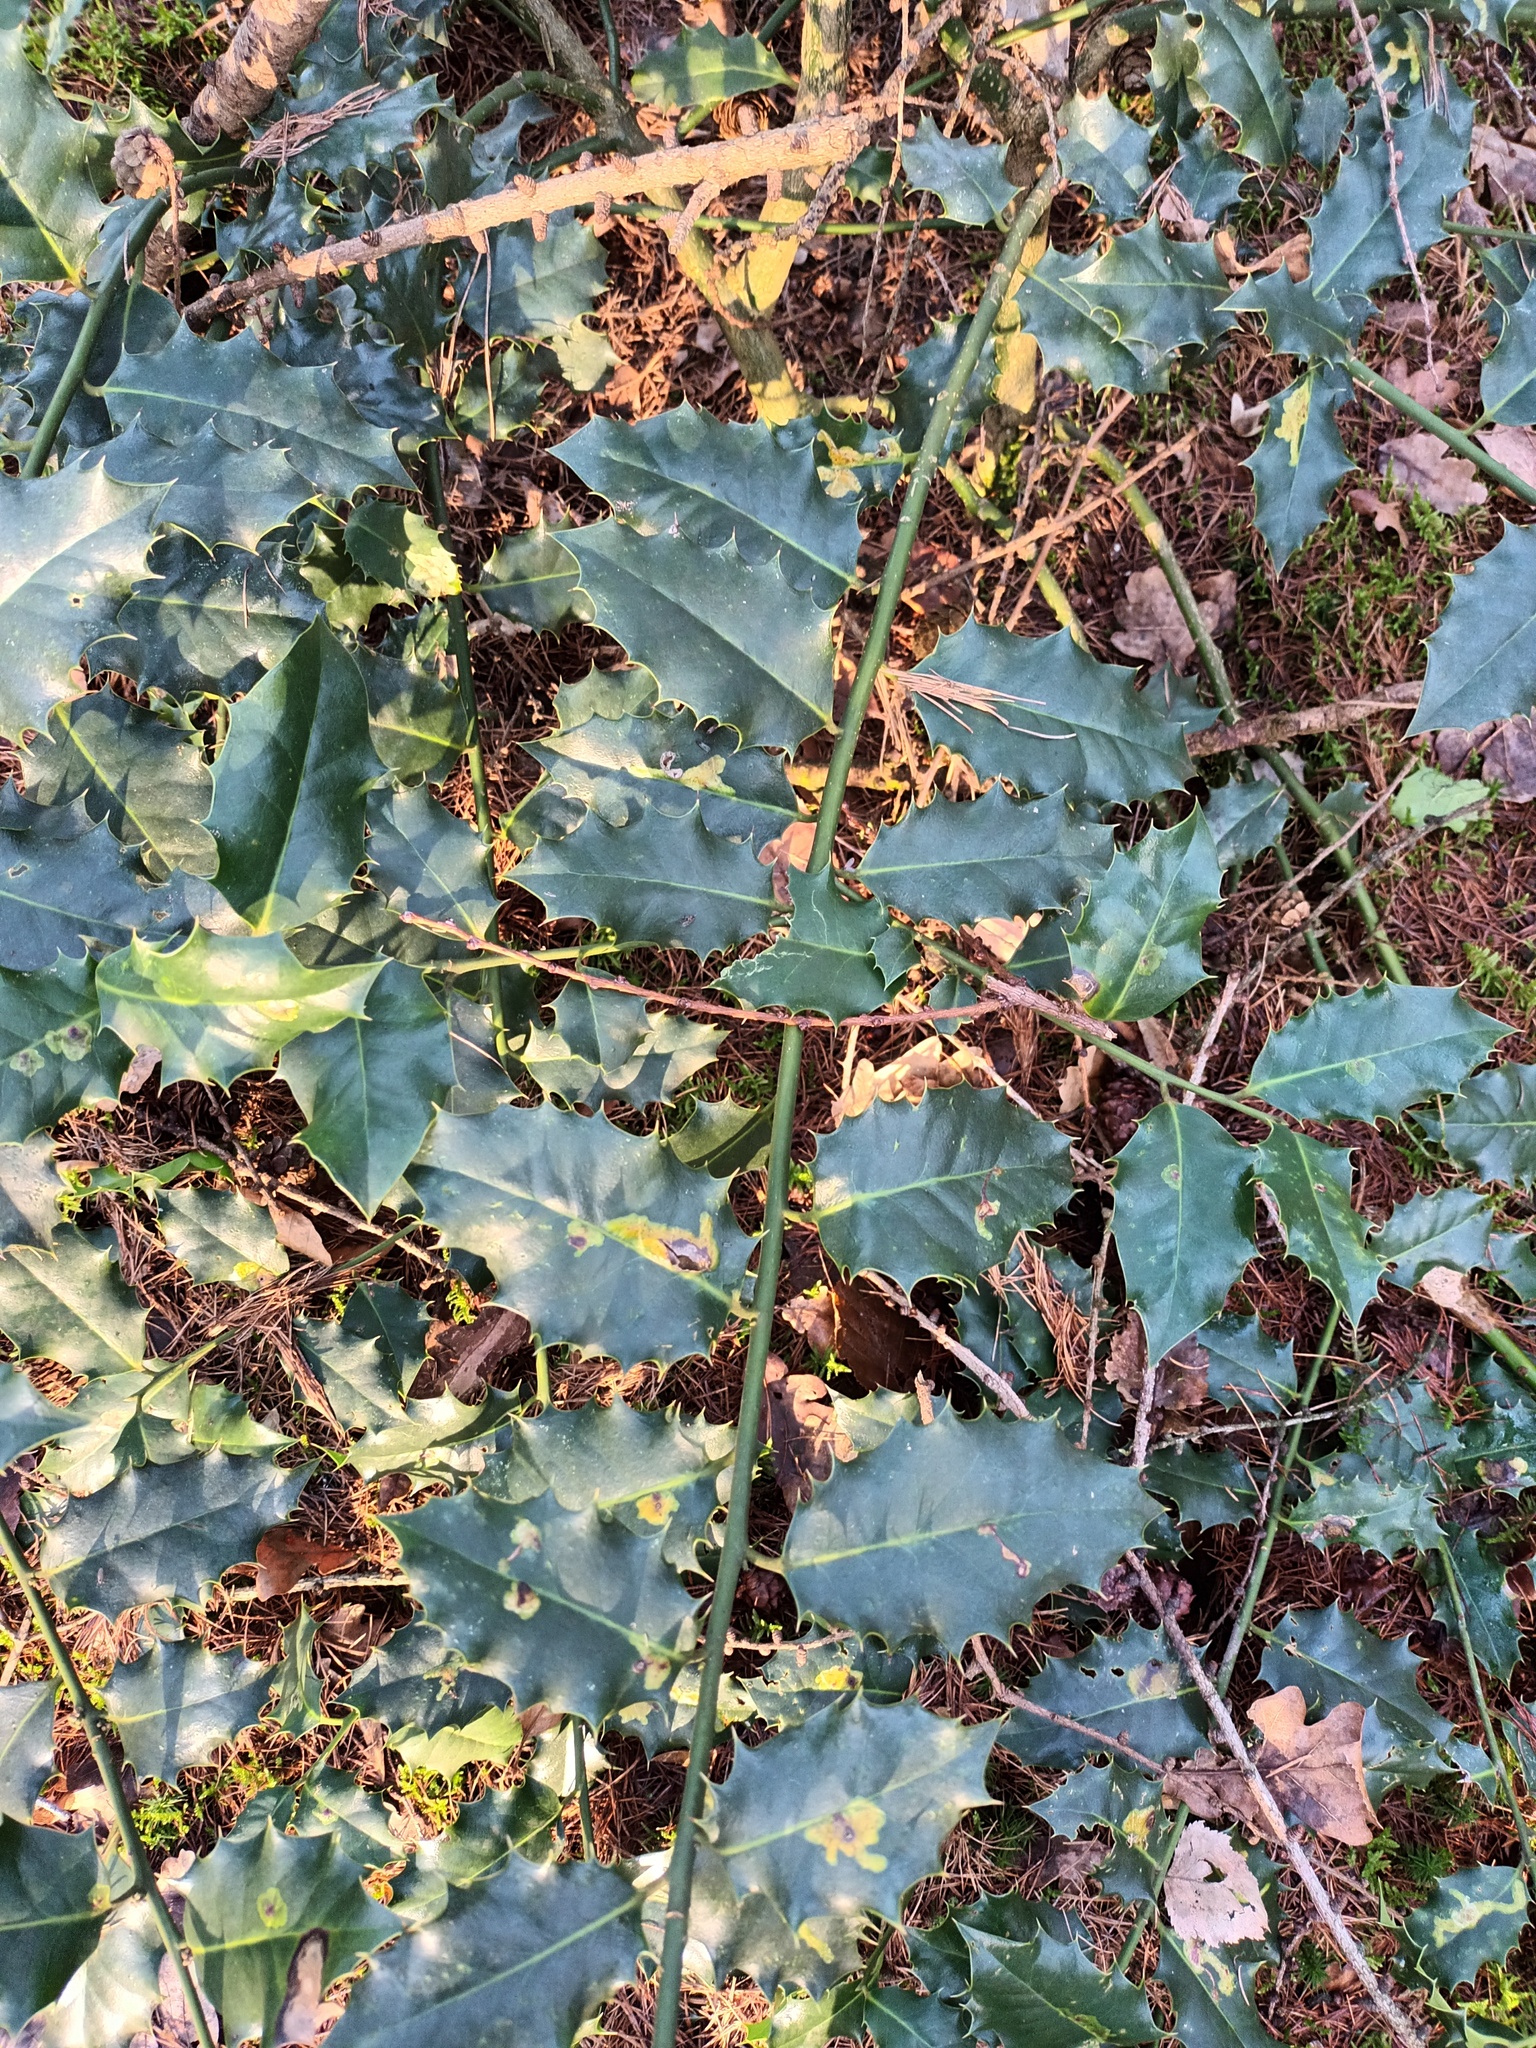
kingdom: Plantae
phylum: Tracheophyta
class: Magnoliopsida
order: Aquifoliales
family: Aquifoliaceae
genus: Ilex
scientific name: Ilex aquifolium
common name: English holly
